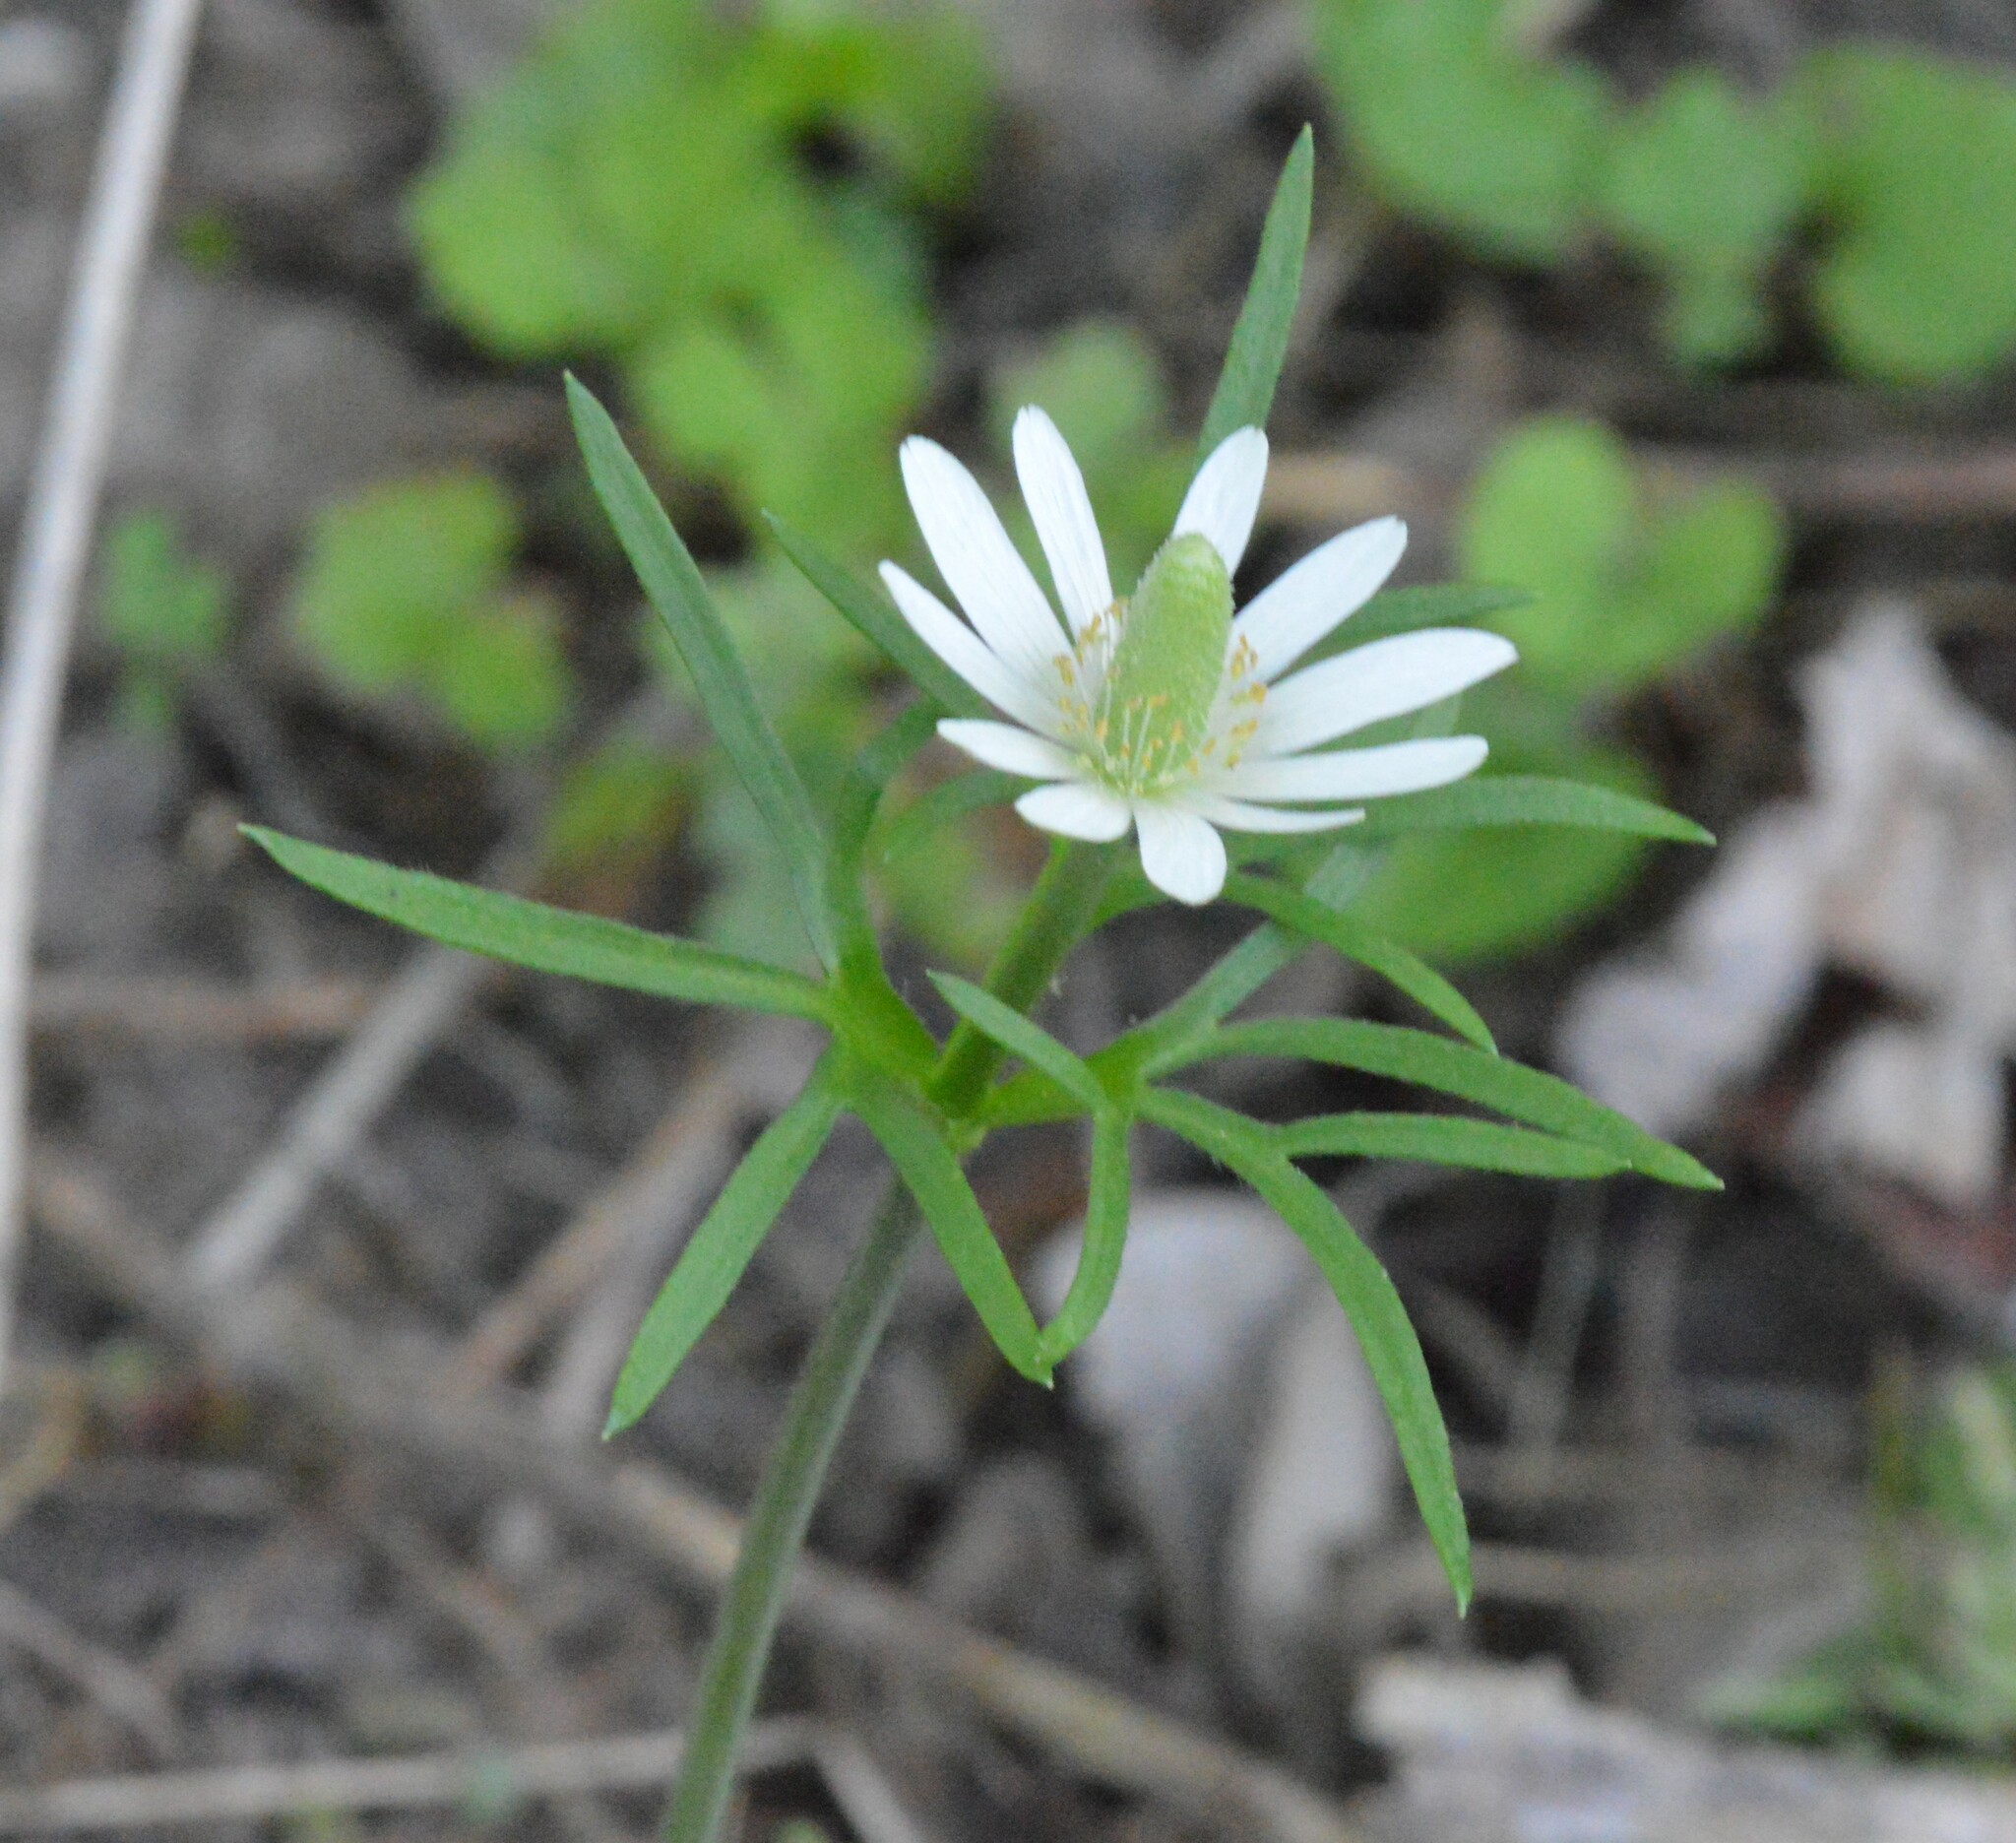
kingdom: Plantae
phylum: Tracheophyta
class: Magnoliopsida
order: Ranunculales
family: Ranunculaceae
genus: Anemone
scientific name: Anemone berlandieri
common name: Ten-petal anemone
